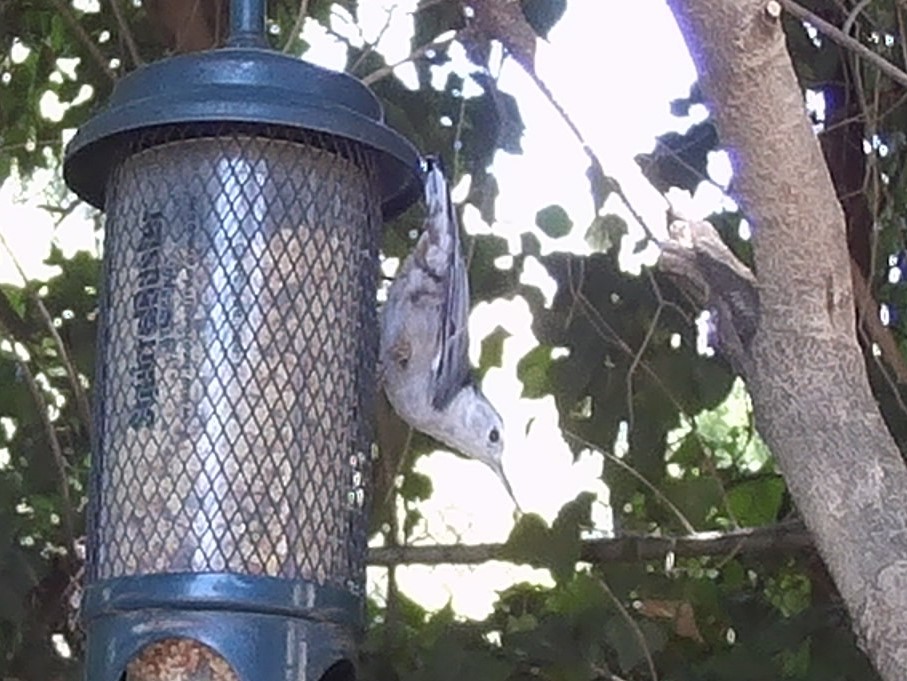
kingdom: Animalia
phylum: Chordata
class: Aves
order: Passeriformes
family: Sittidae
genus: Sitta
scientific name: Sitta carolinensis
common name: White-breasted nuthatch
